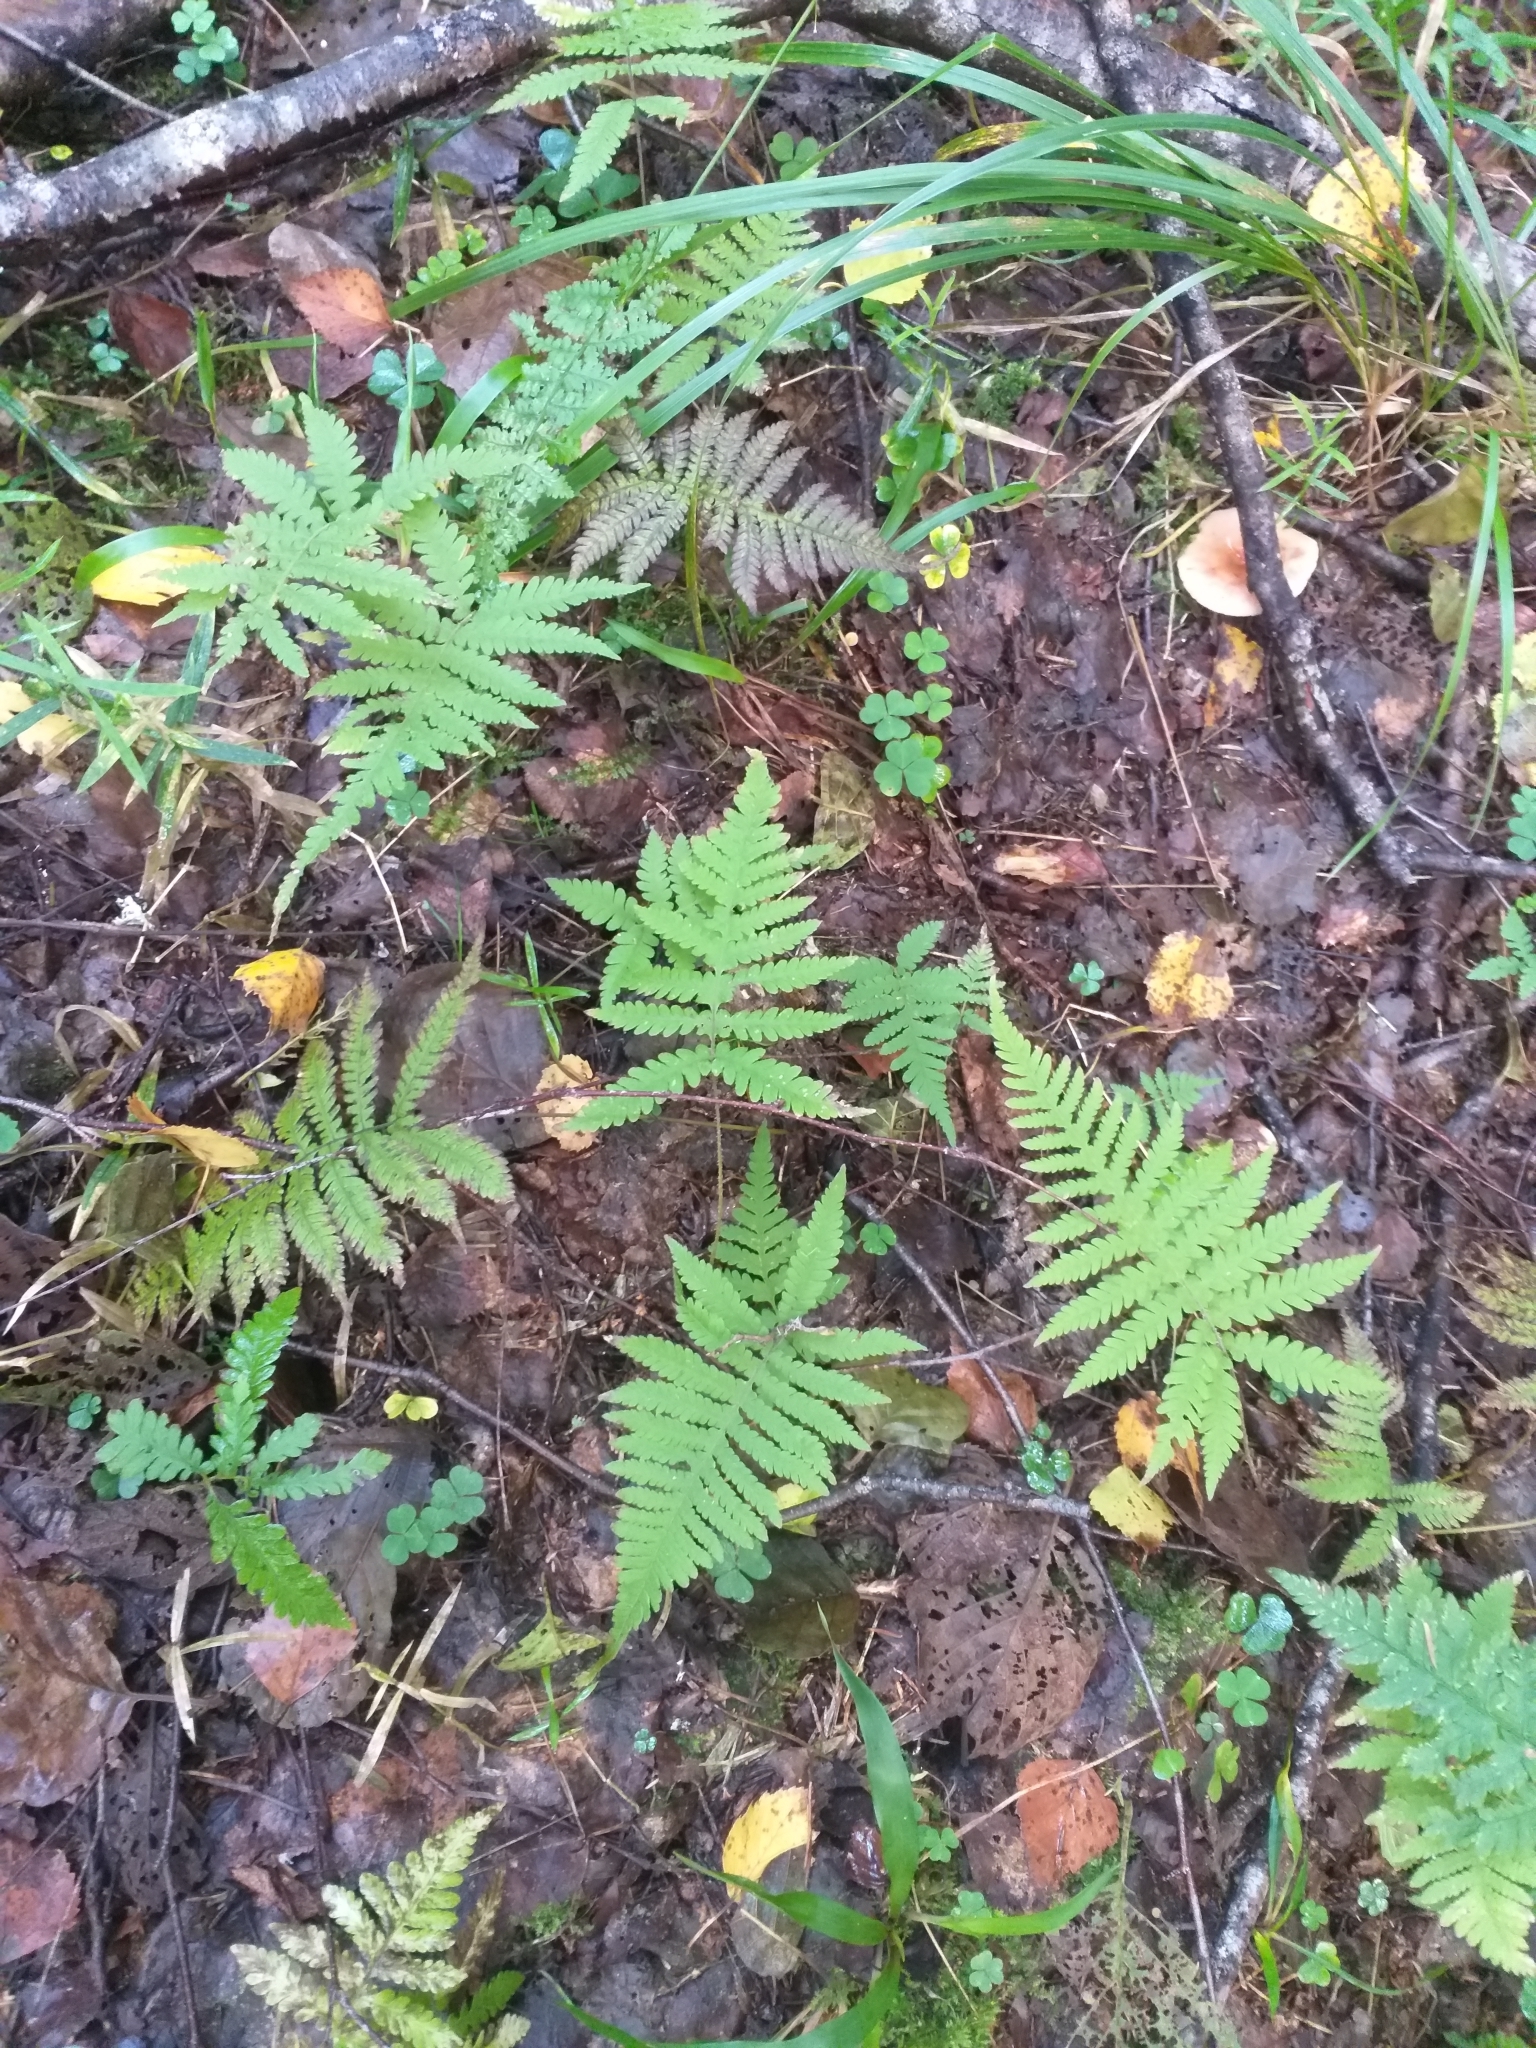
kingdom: Plantae
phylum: Tracheophyta
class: Polypodiopsida
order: Polypodiales
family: Thelypteridaceae
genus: Phegopteris
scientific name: Phegopteris connectilis
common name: Beech fern
